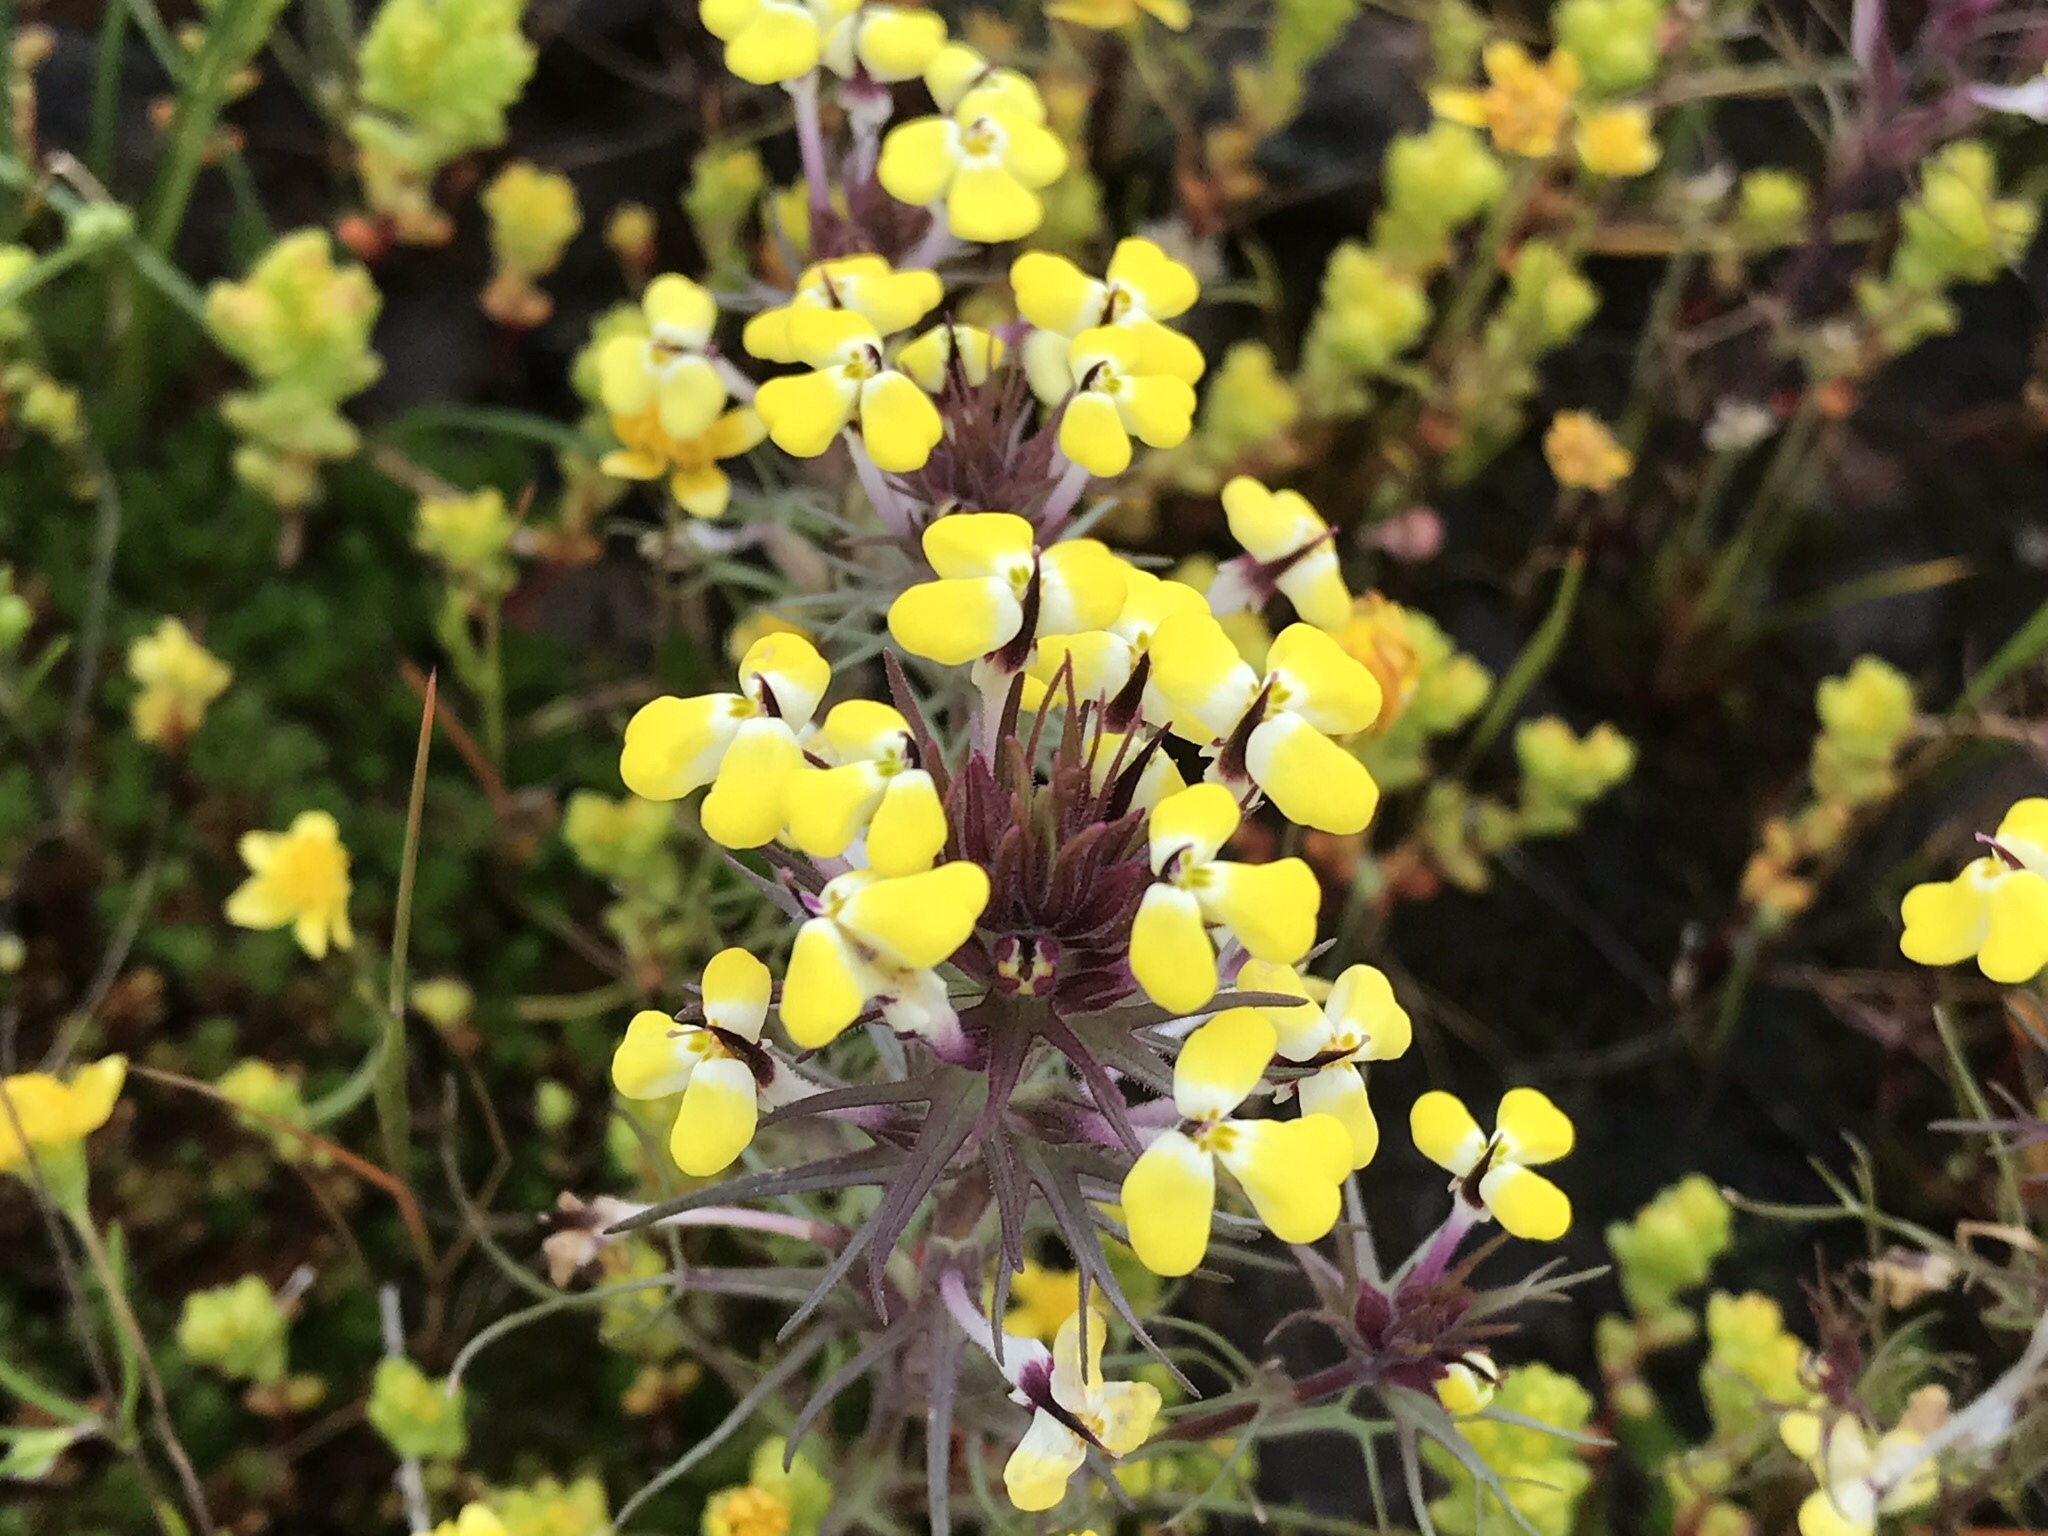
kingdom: Plantae
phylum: Tracheophyta
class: Magnoliopsida
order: Lamiales
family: Orobanchaceae
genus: Triphysaria
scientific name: Triphysaria eriantha
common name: Johnny-tuck
